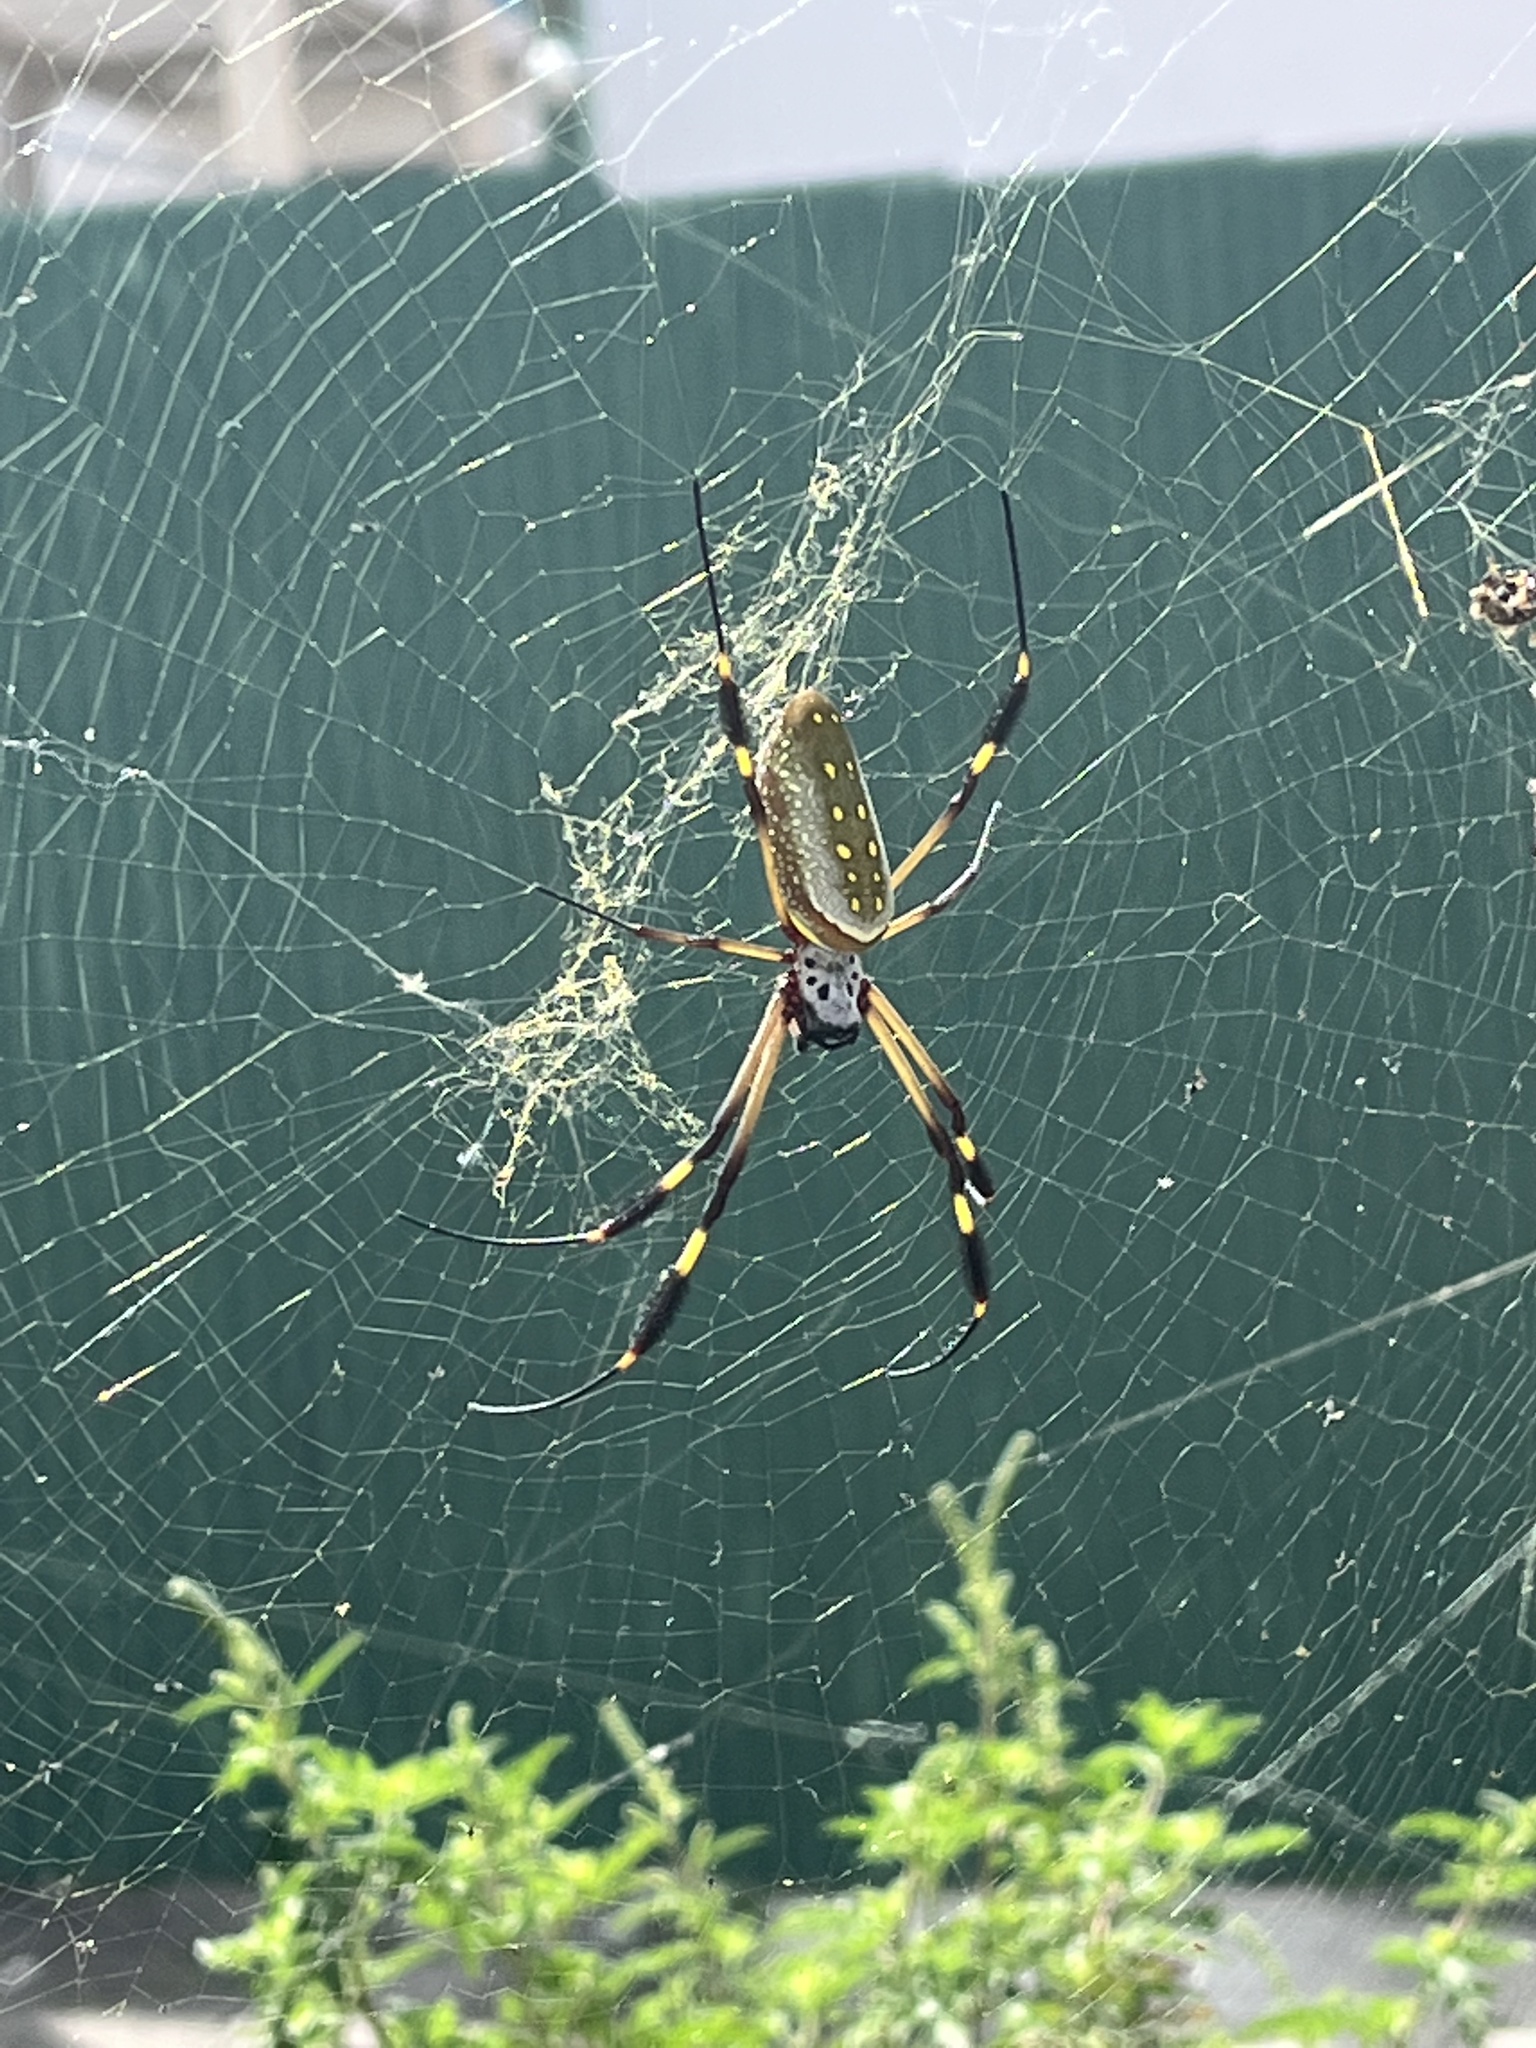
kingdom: Animalia
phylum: Arthropoda
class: Arachnida
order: Araneae
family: Araneidae
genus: Trichonephila
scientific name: Trichonephila clavipes
